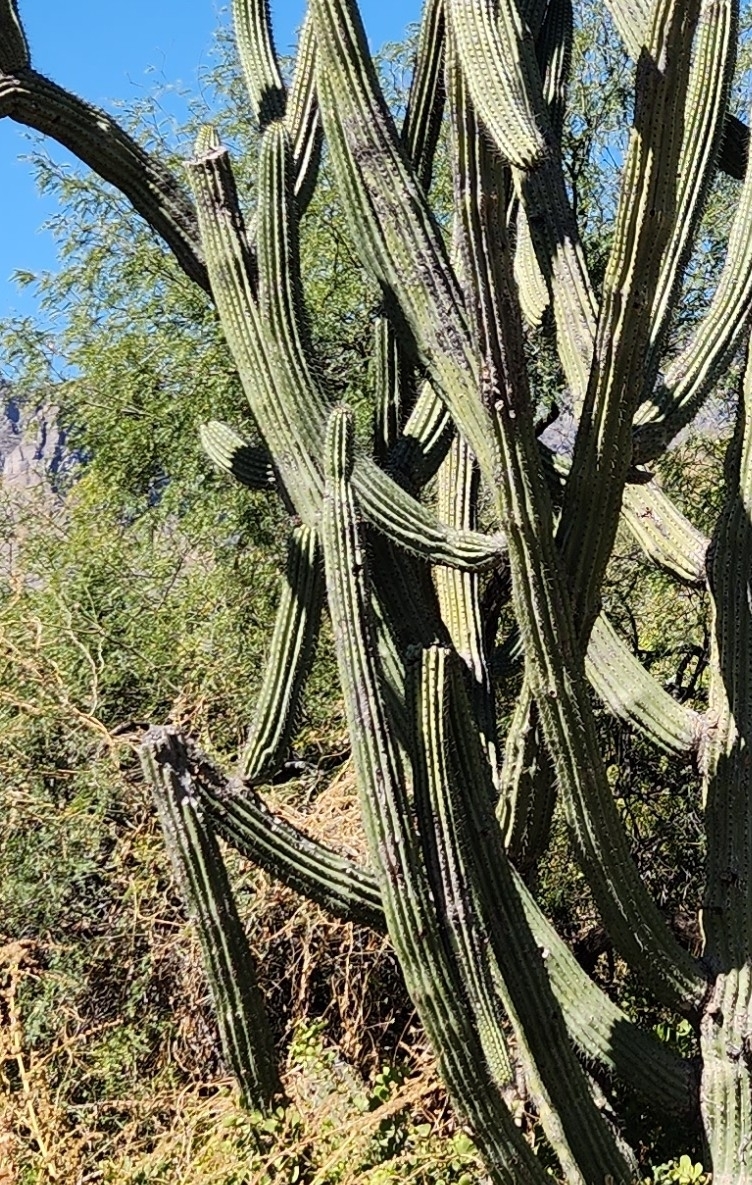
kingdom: Plantae
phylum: Tracheophyta
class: Magnoliopsida
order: Caryophyllales
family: Cactaceae
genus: Stenocereus
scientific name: Stenocereus thurberi
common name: Organ pipe cactus
